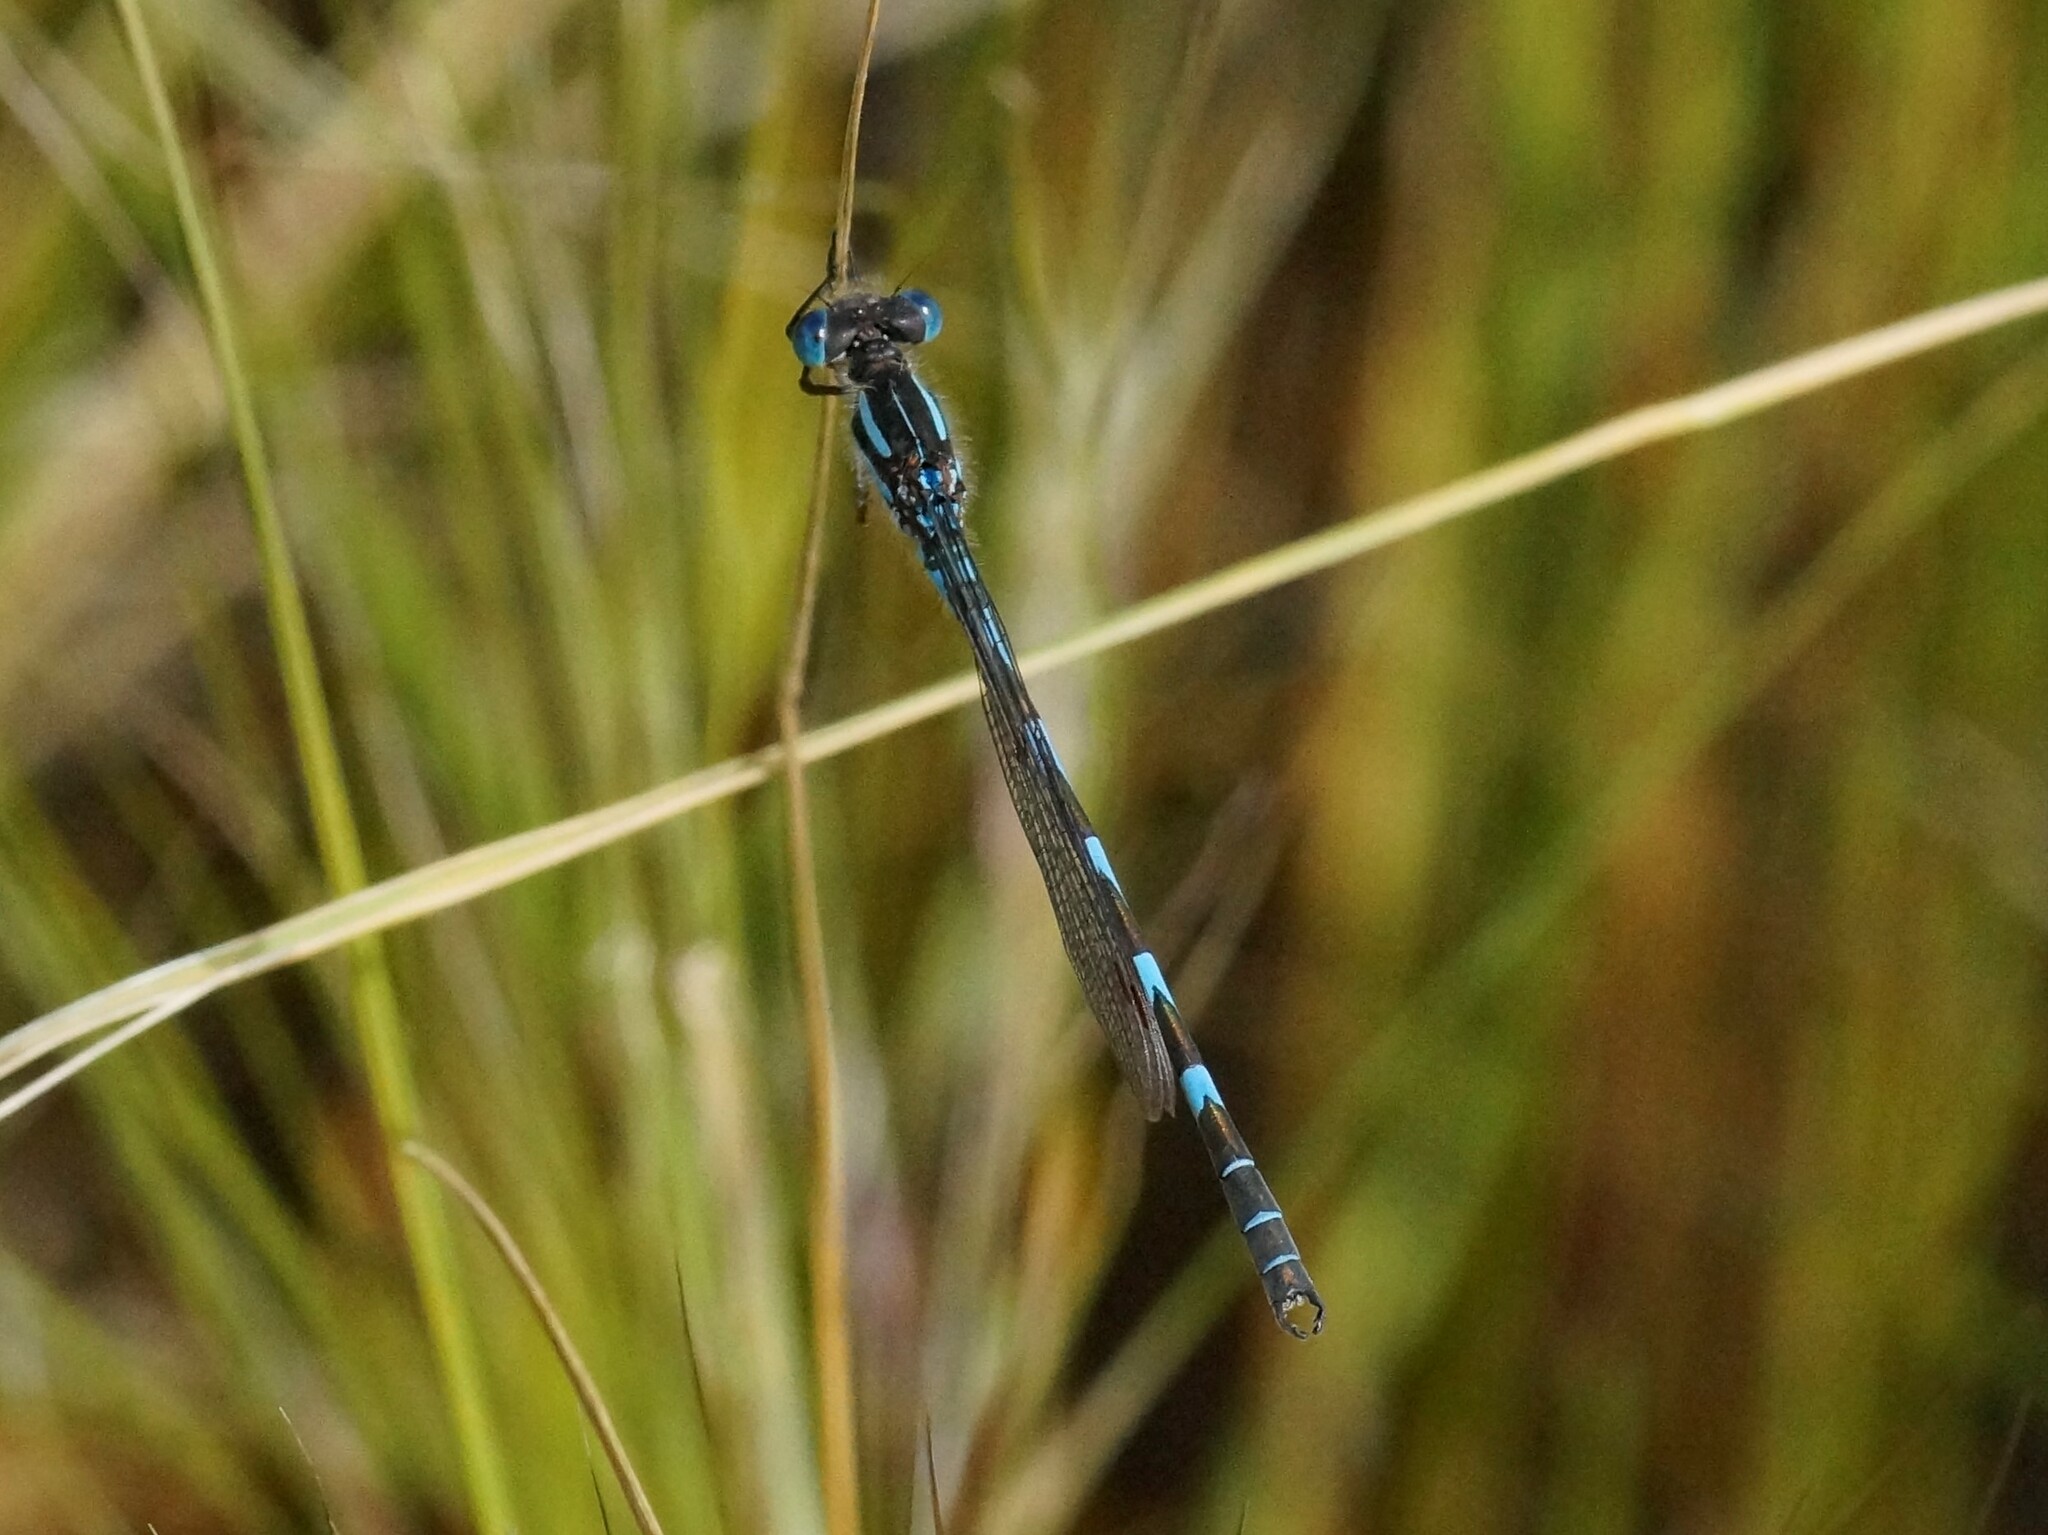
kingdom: Animalia
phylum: Arthropoda
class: Insecta
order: Odonata
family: Lestidae
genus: Austrolestes
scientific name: Austrolestes annulosus
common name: Blue ringtail
